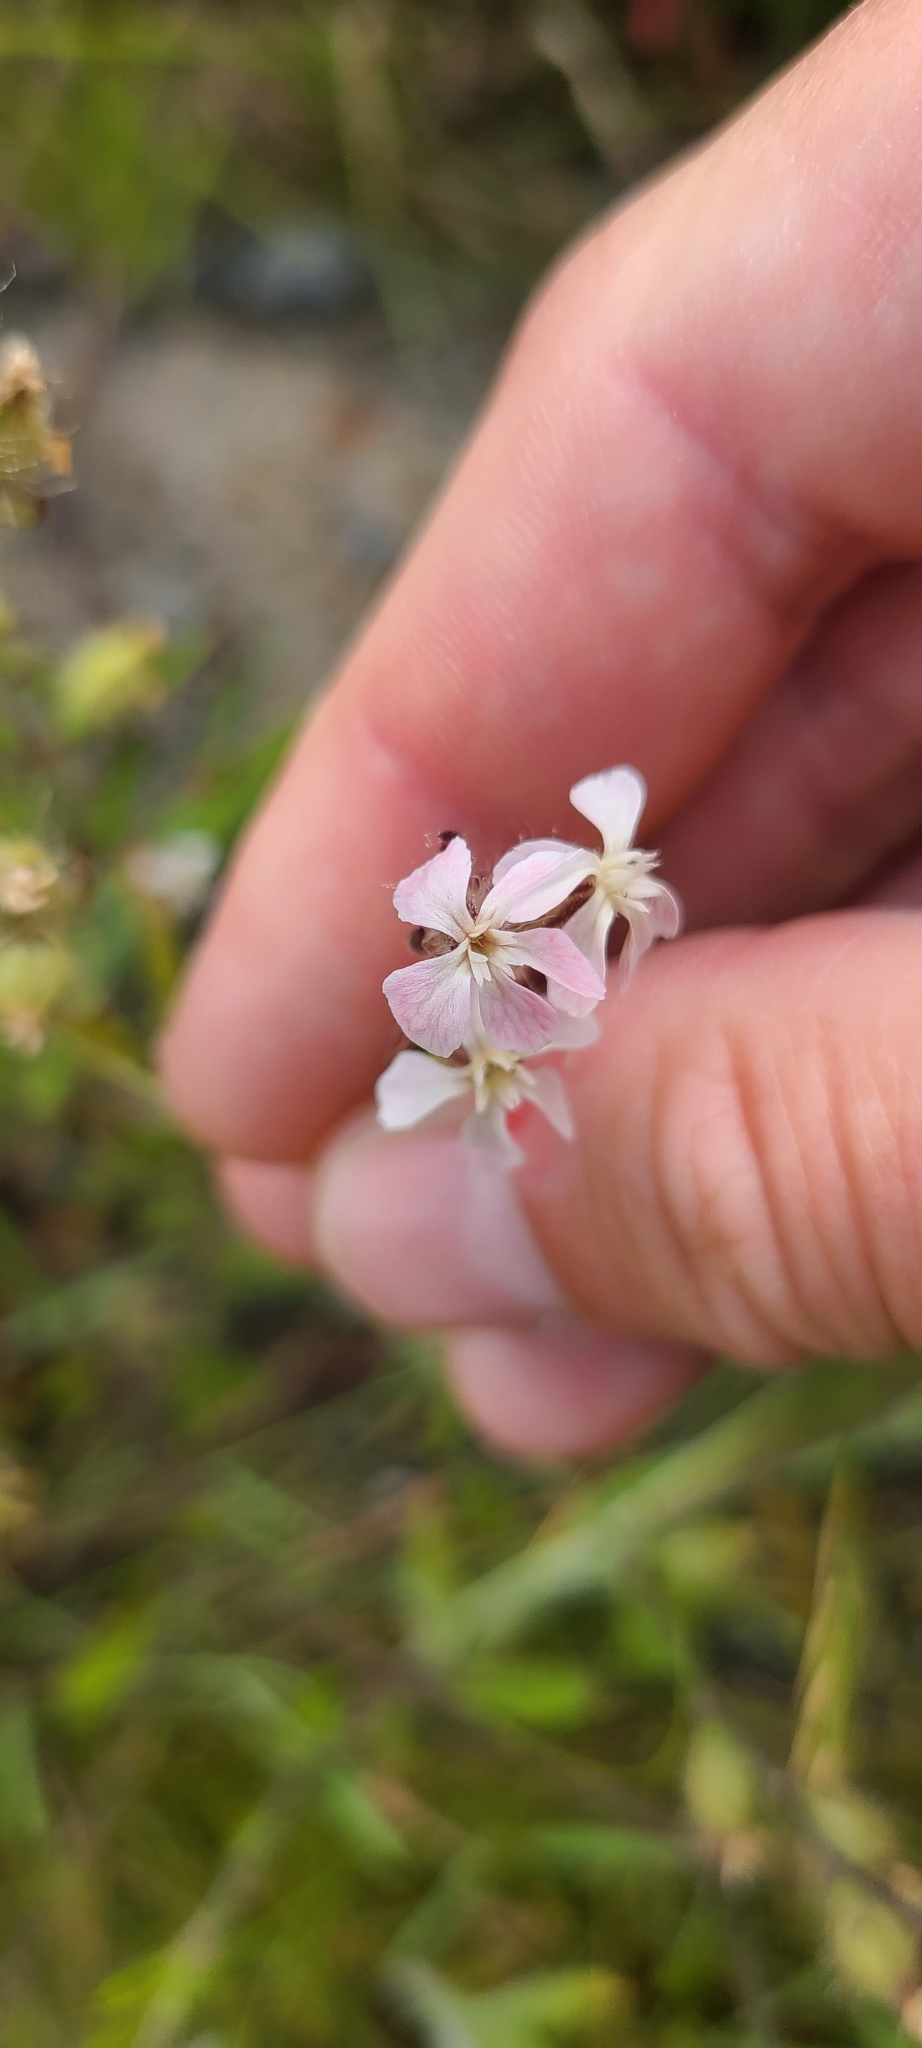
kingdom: Plantae
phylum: Tracheophyta
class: Magnoliopsida
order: Caryophyllales
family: Caryophyllaceae
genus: Silene
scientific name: Silene gallica
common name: Small-flowered catchfly
